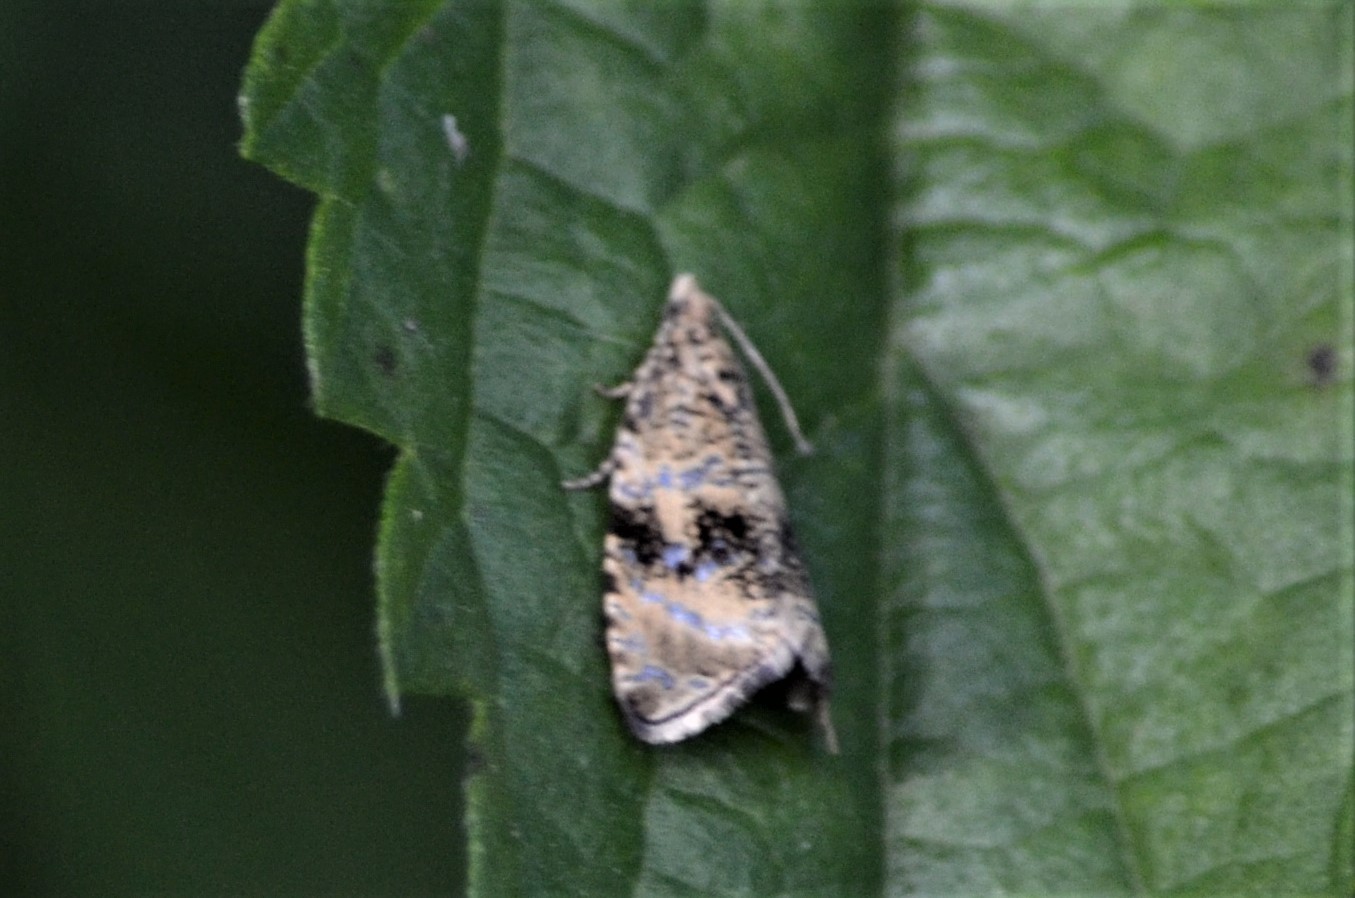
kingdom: Animalia
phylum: Arthropoda
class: Insecta
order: Lepidoptera
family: Tortricidae
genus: Syricoris
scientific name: Syricoris lacunana
